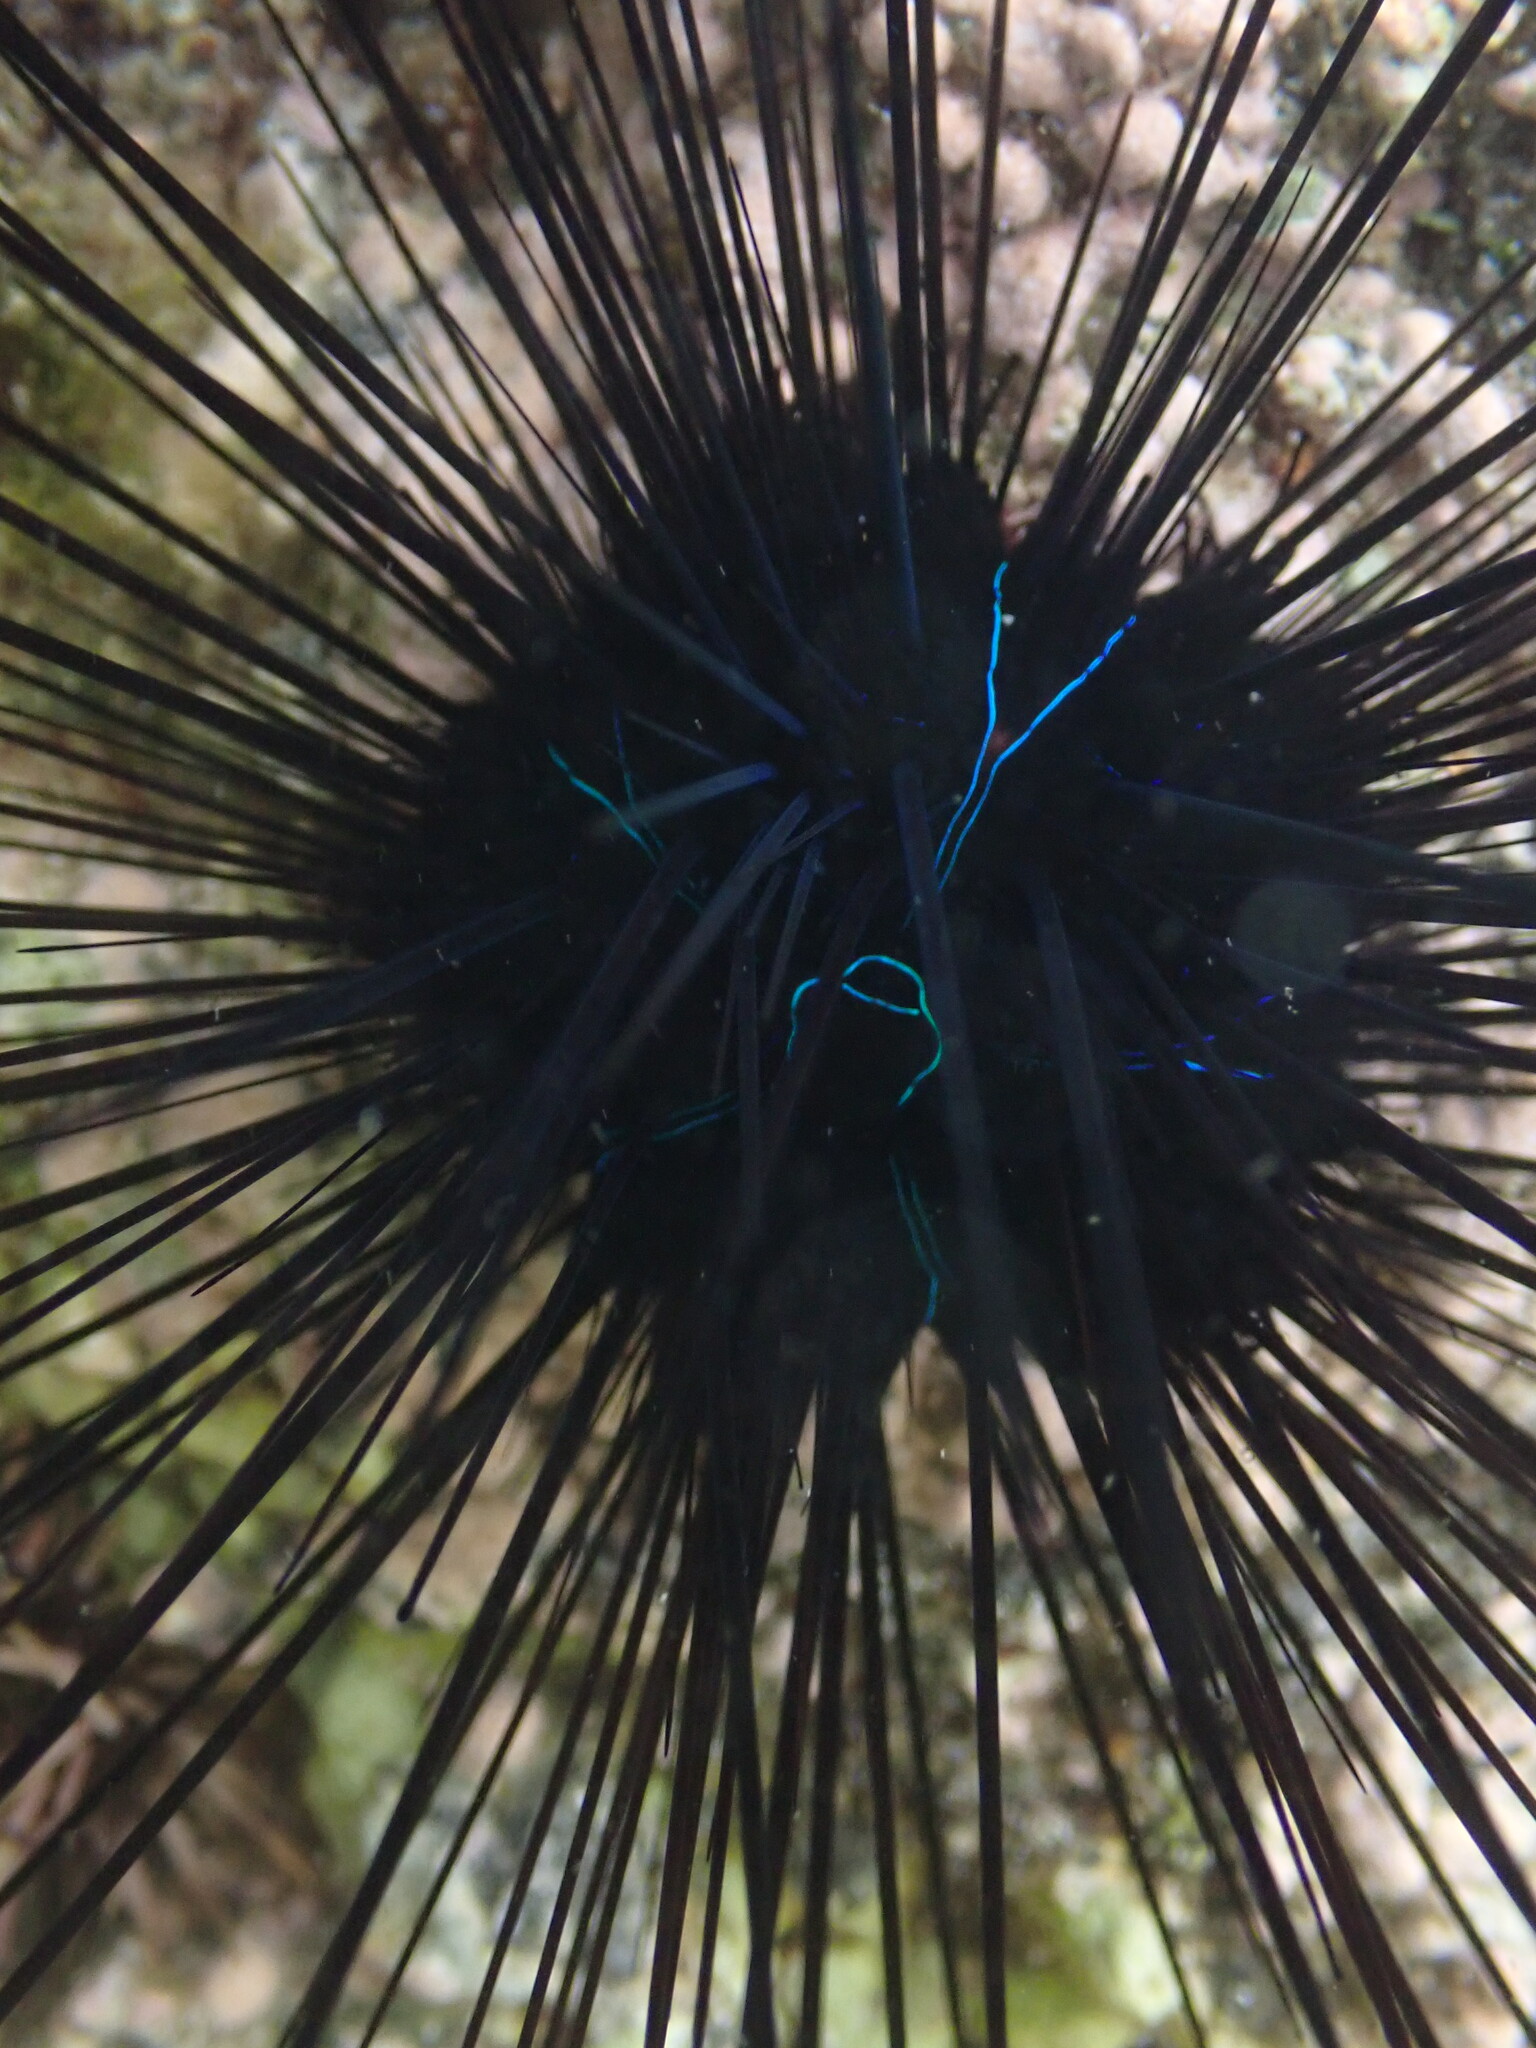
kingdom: Animalia
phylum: Echinodermata
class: Echinoidea
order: Diadematoida
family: Diadematidae
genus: Diadema
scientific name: Diadema savignyi
